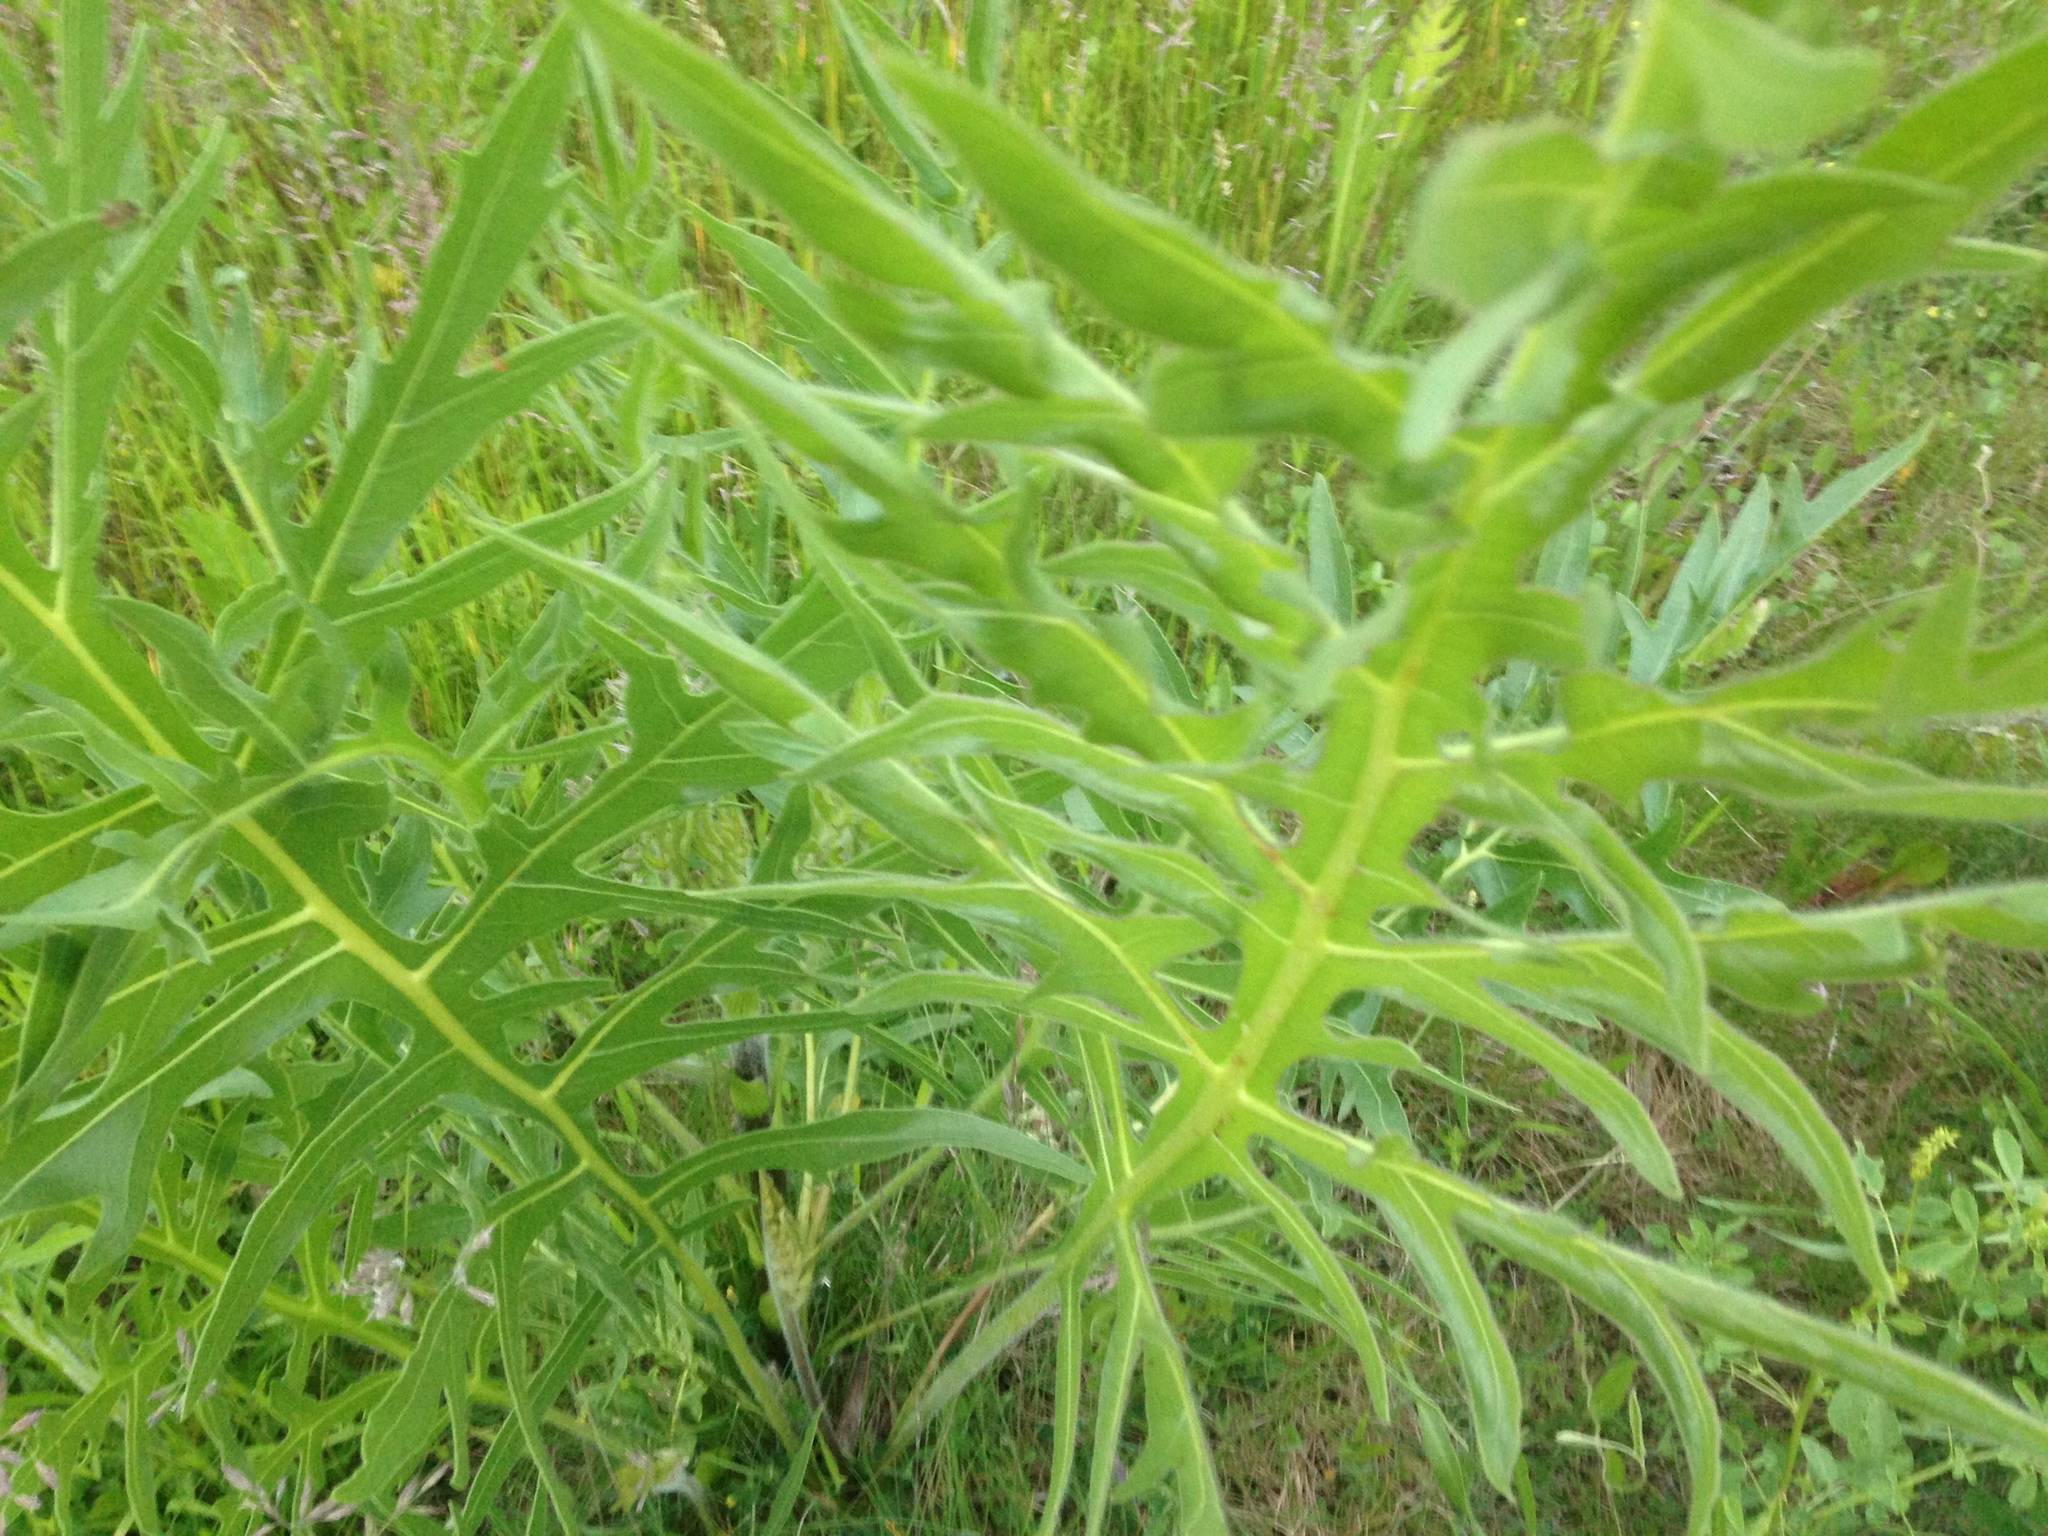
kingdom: Plantae
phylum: Tracheophyta
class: Magnoliopsida
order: Asterales
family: Asteraceae
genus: Silphium
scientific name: Silphium laciniatum
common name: Polarplant
